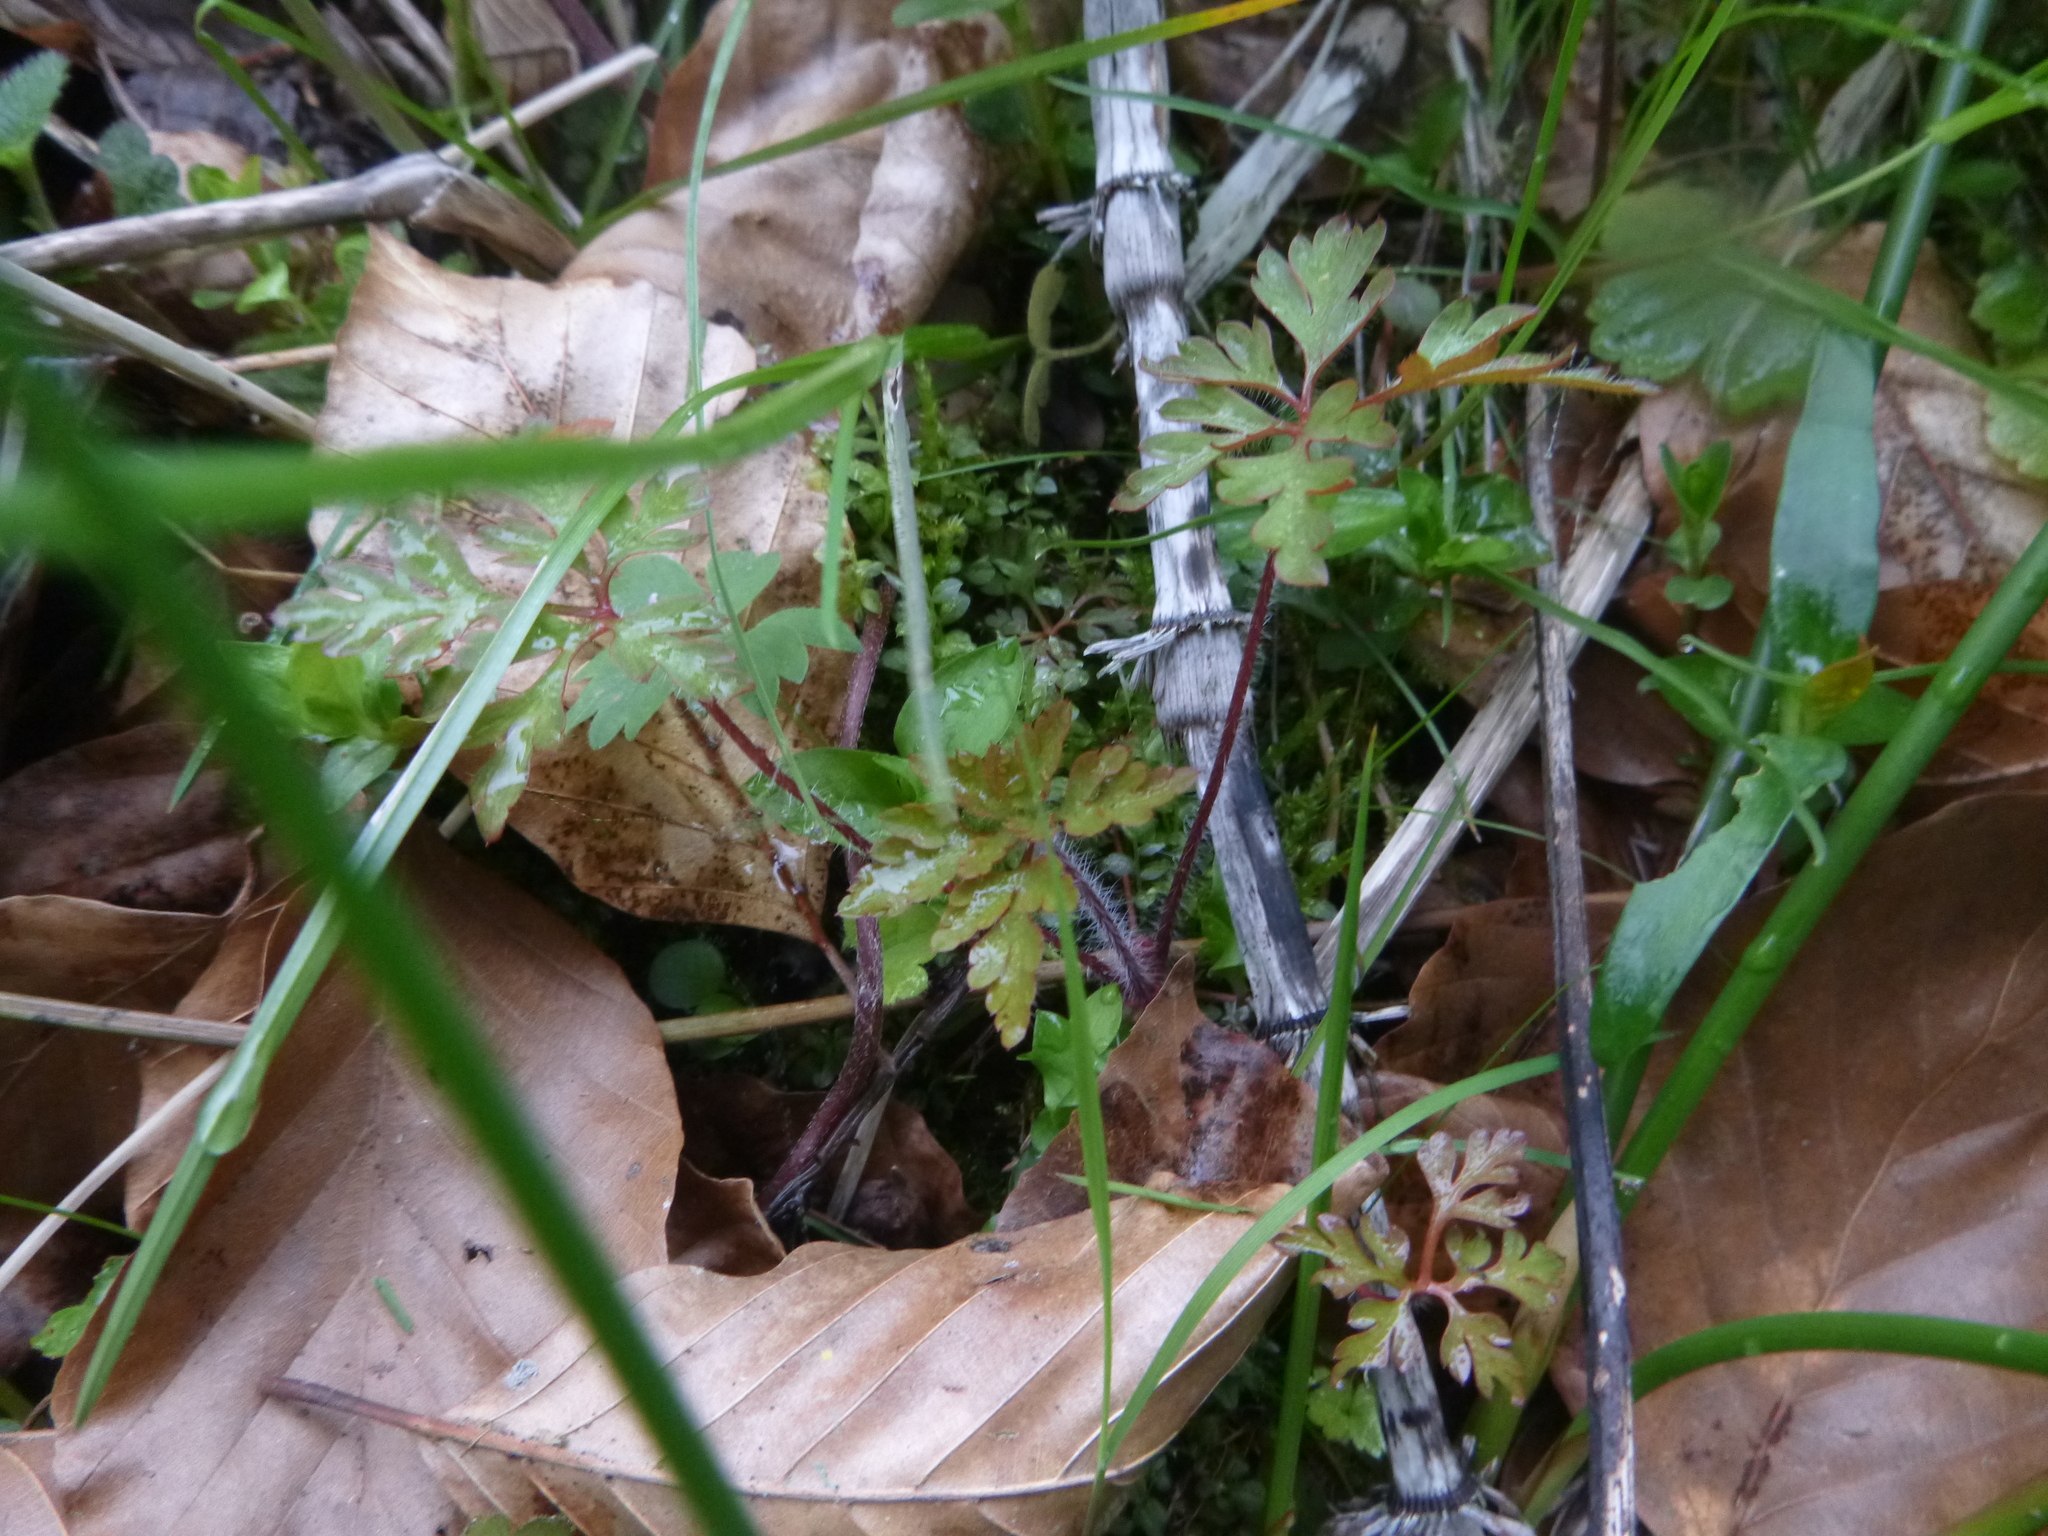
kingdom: Plantae
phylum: Tracheophyta
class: Magnoliopsida
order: Geraniales
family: Geraniaceae
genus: Geranium
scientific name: Geranium robertianum
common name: Herb-robert
